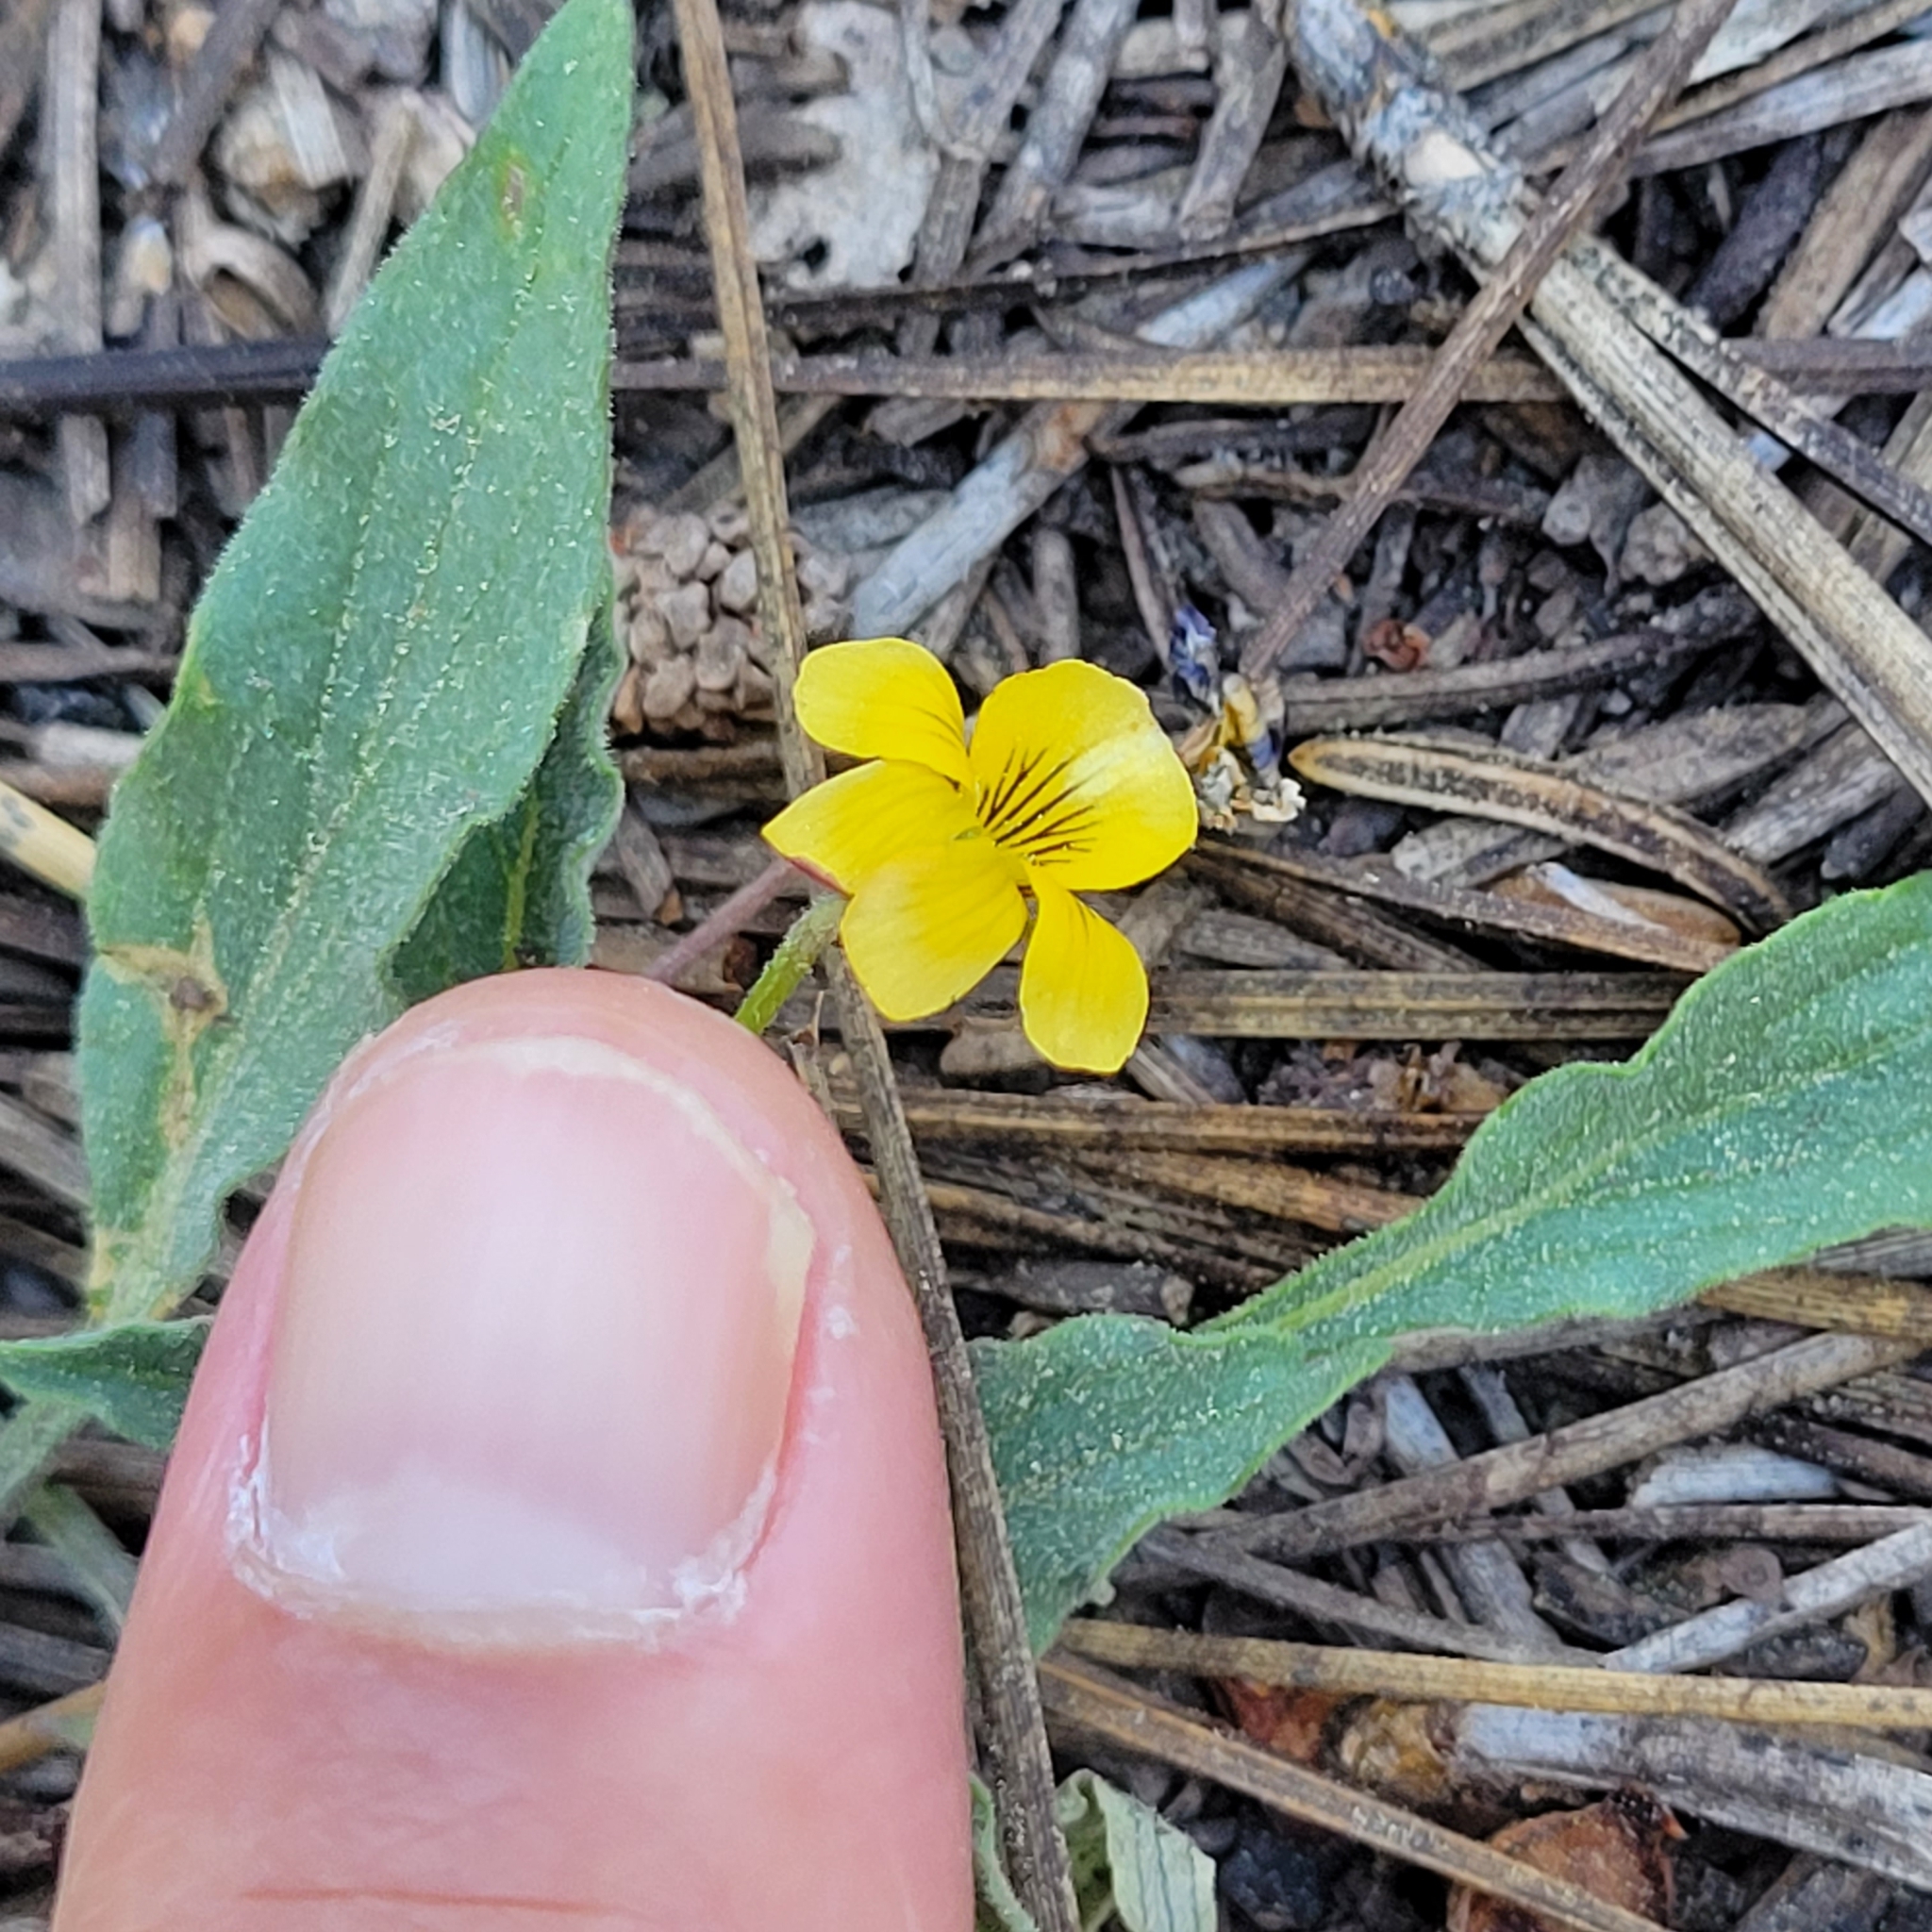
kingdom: Plantae
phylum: Tracheophyta
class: Magnoliopsida
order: Malpighiales
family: Violaceae
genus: Viola
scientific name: Viola pinetorum
